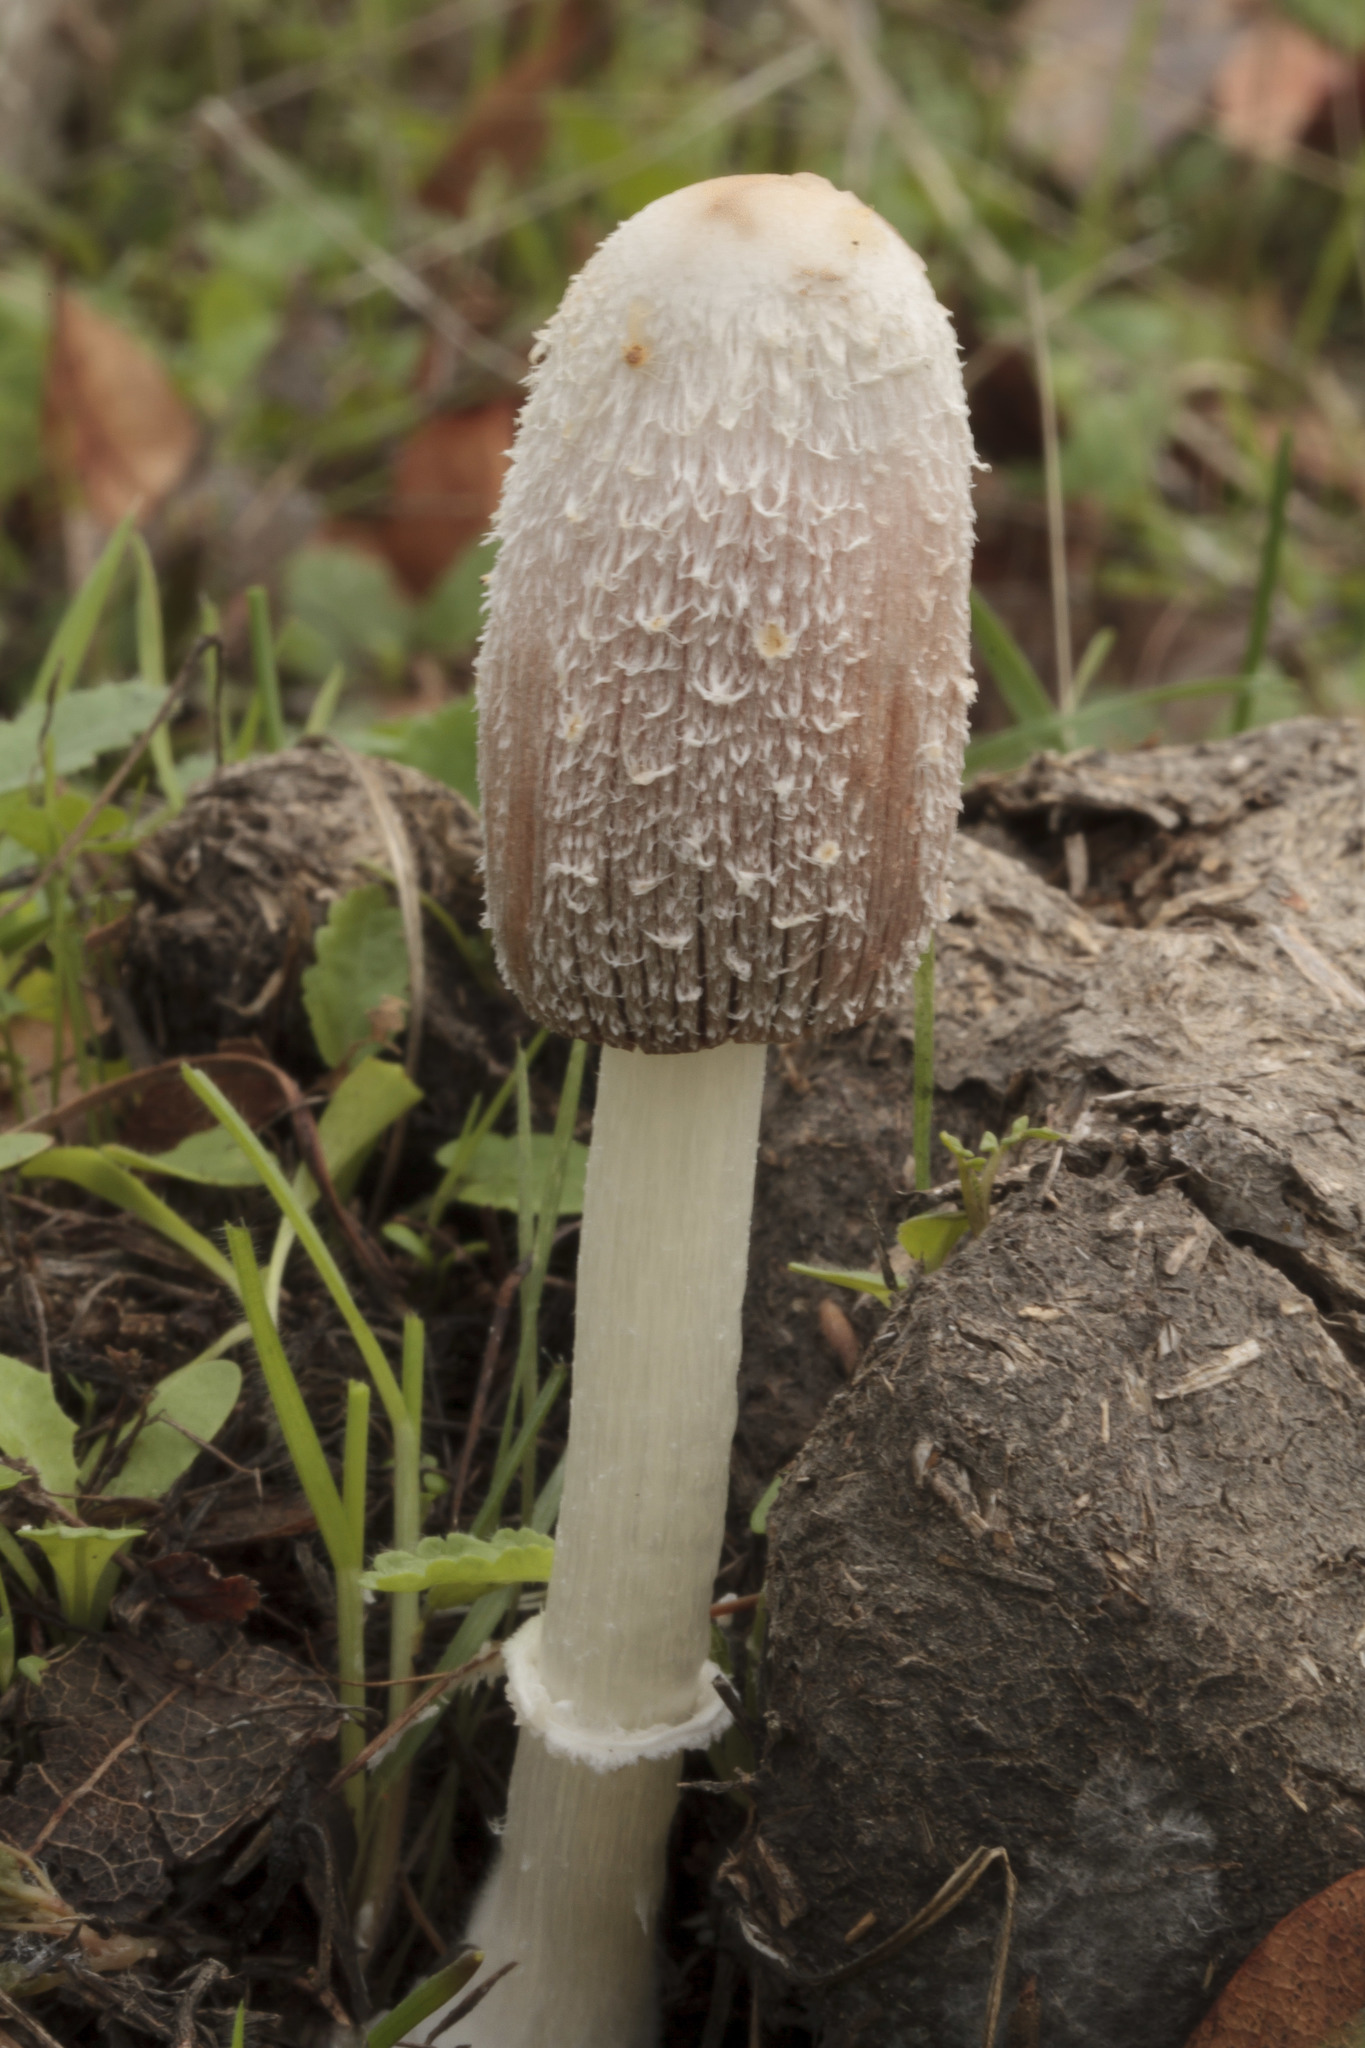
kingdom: Fungi
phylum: Basidiomycota
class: Agaricomycetes
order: Agaricales
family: Agaricaceae
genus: Coprinus
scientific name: Coprinus comatus
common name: Lawyer's wig
